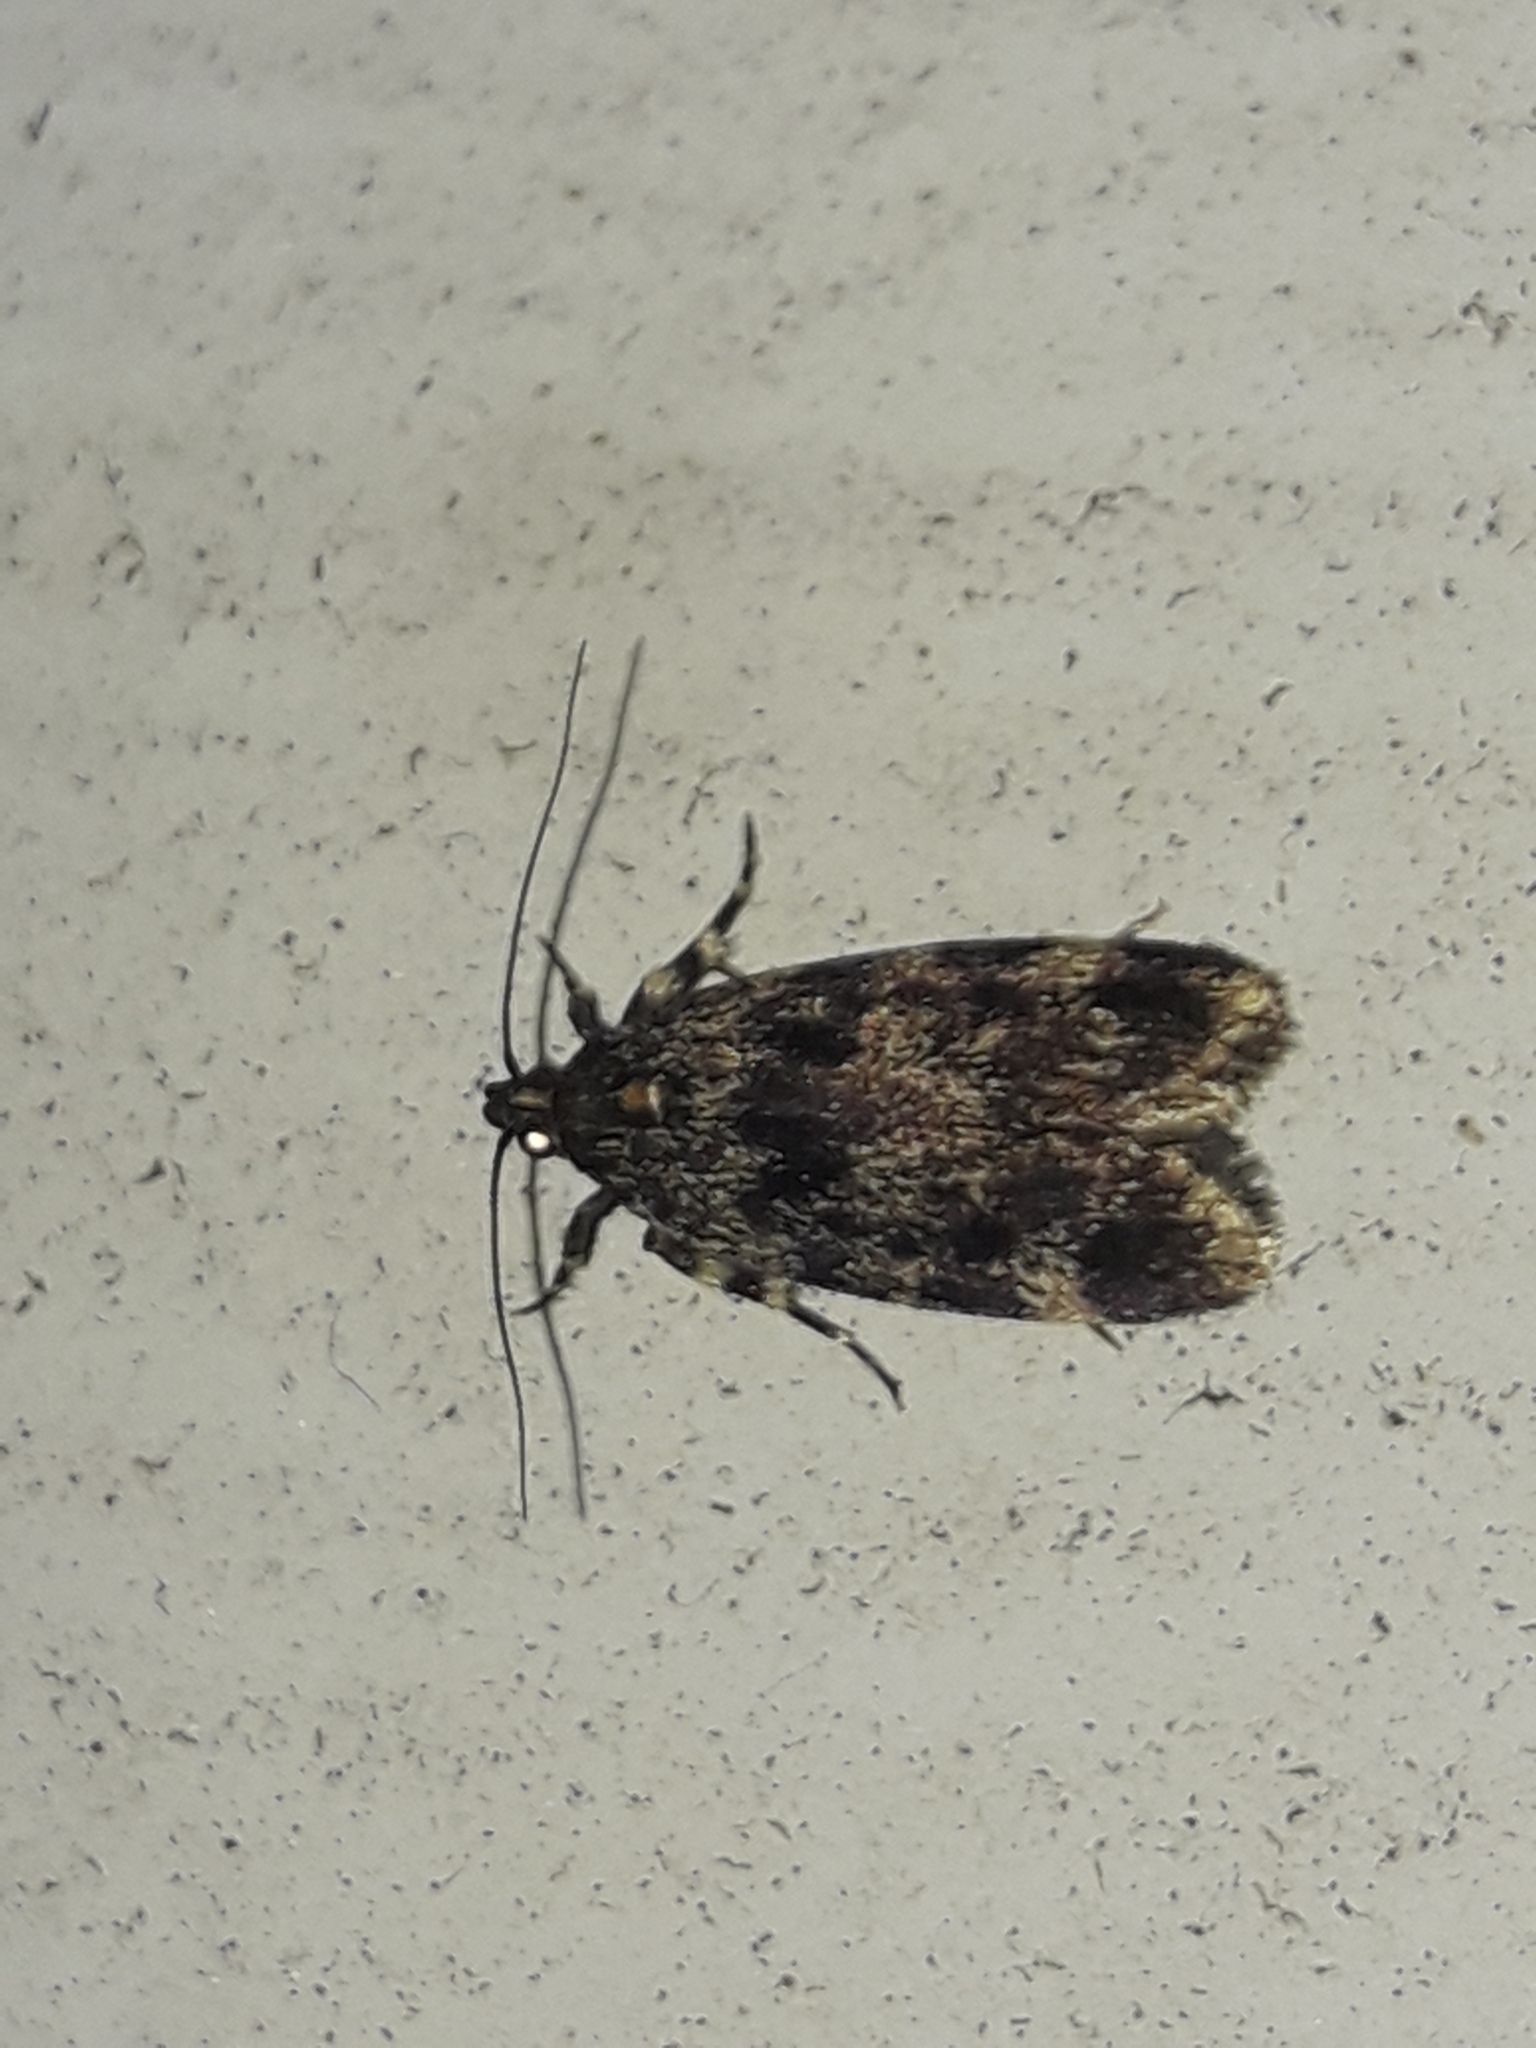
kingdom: Animalia
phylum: Arthropoda
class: Insecta
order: Lepidoptera
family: Oecophoridae
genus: Barea
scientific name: Barea codrella
